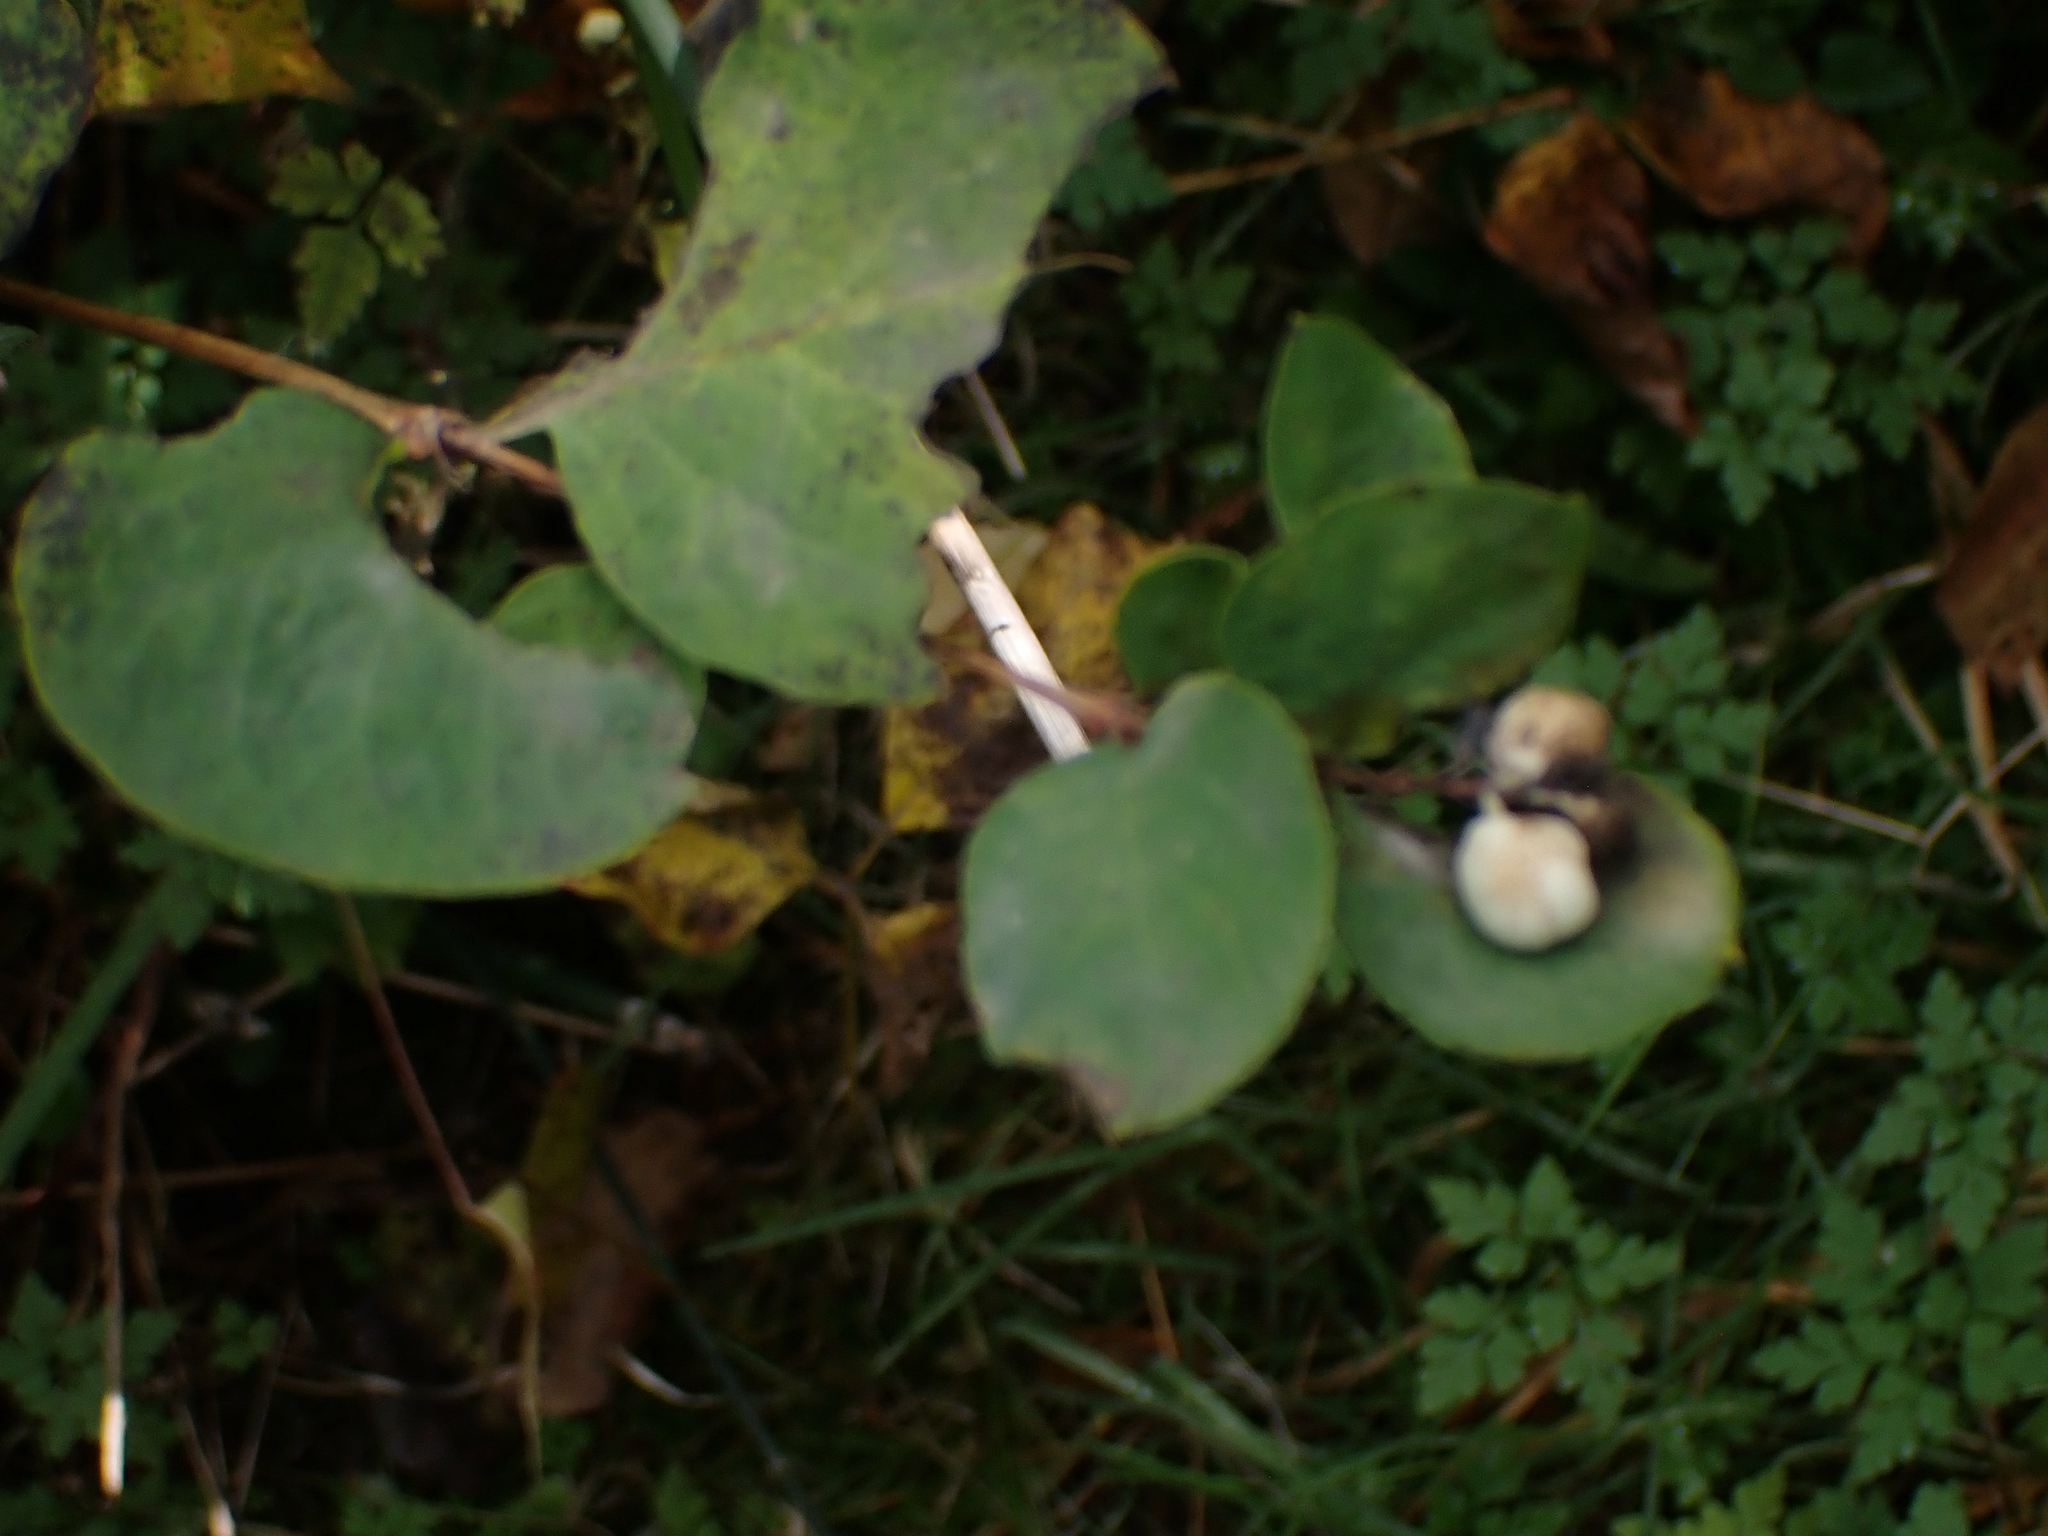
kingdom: Plantae
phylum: Tracheophyta
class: Magnoliopsida
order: Dipsacales
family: Caprifoliaceae
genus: Symphoricarpos
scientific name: Symphoricarpos albus
